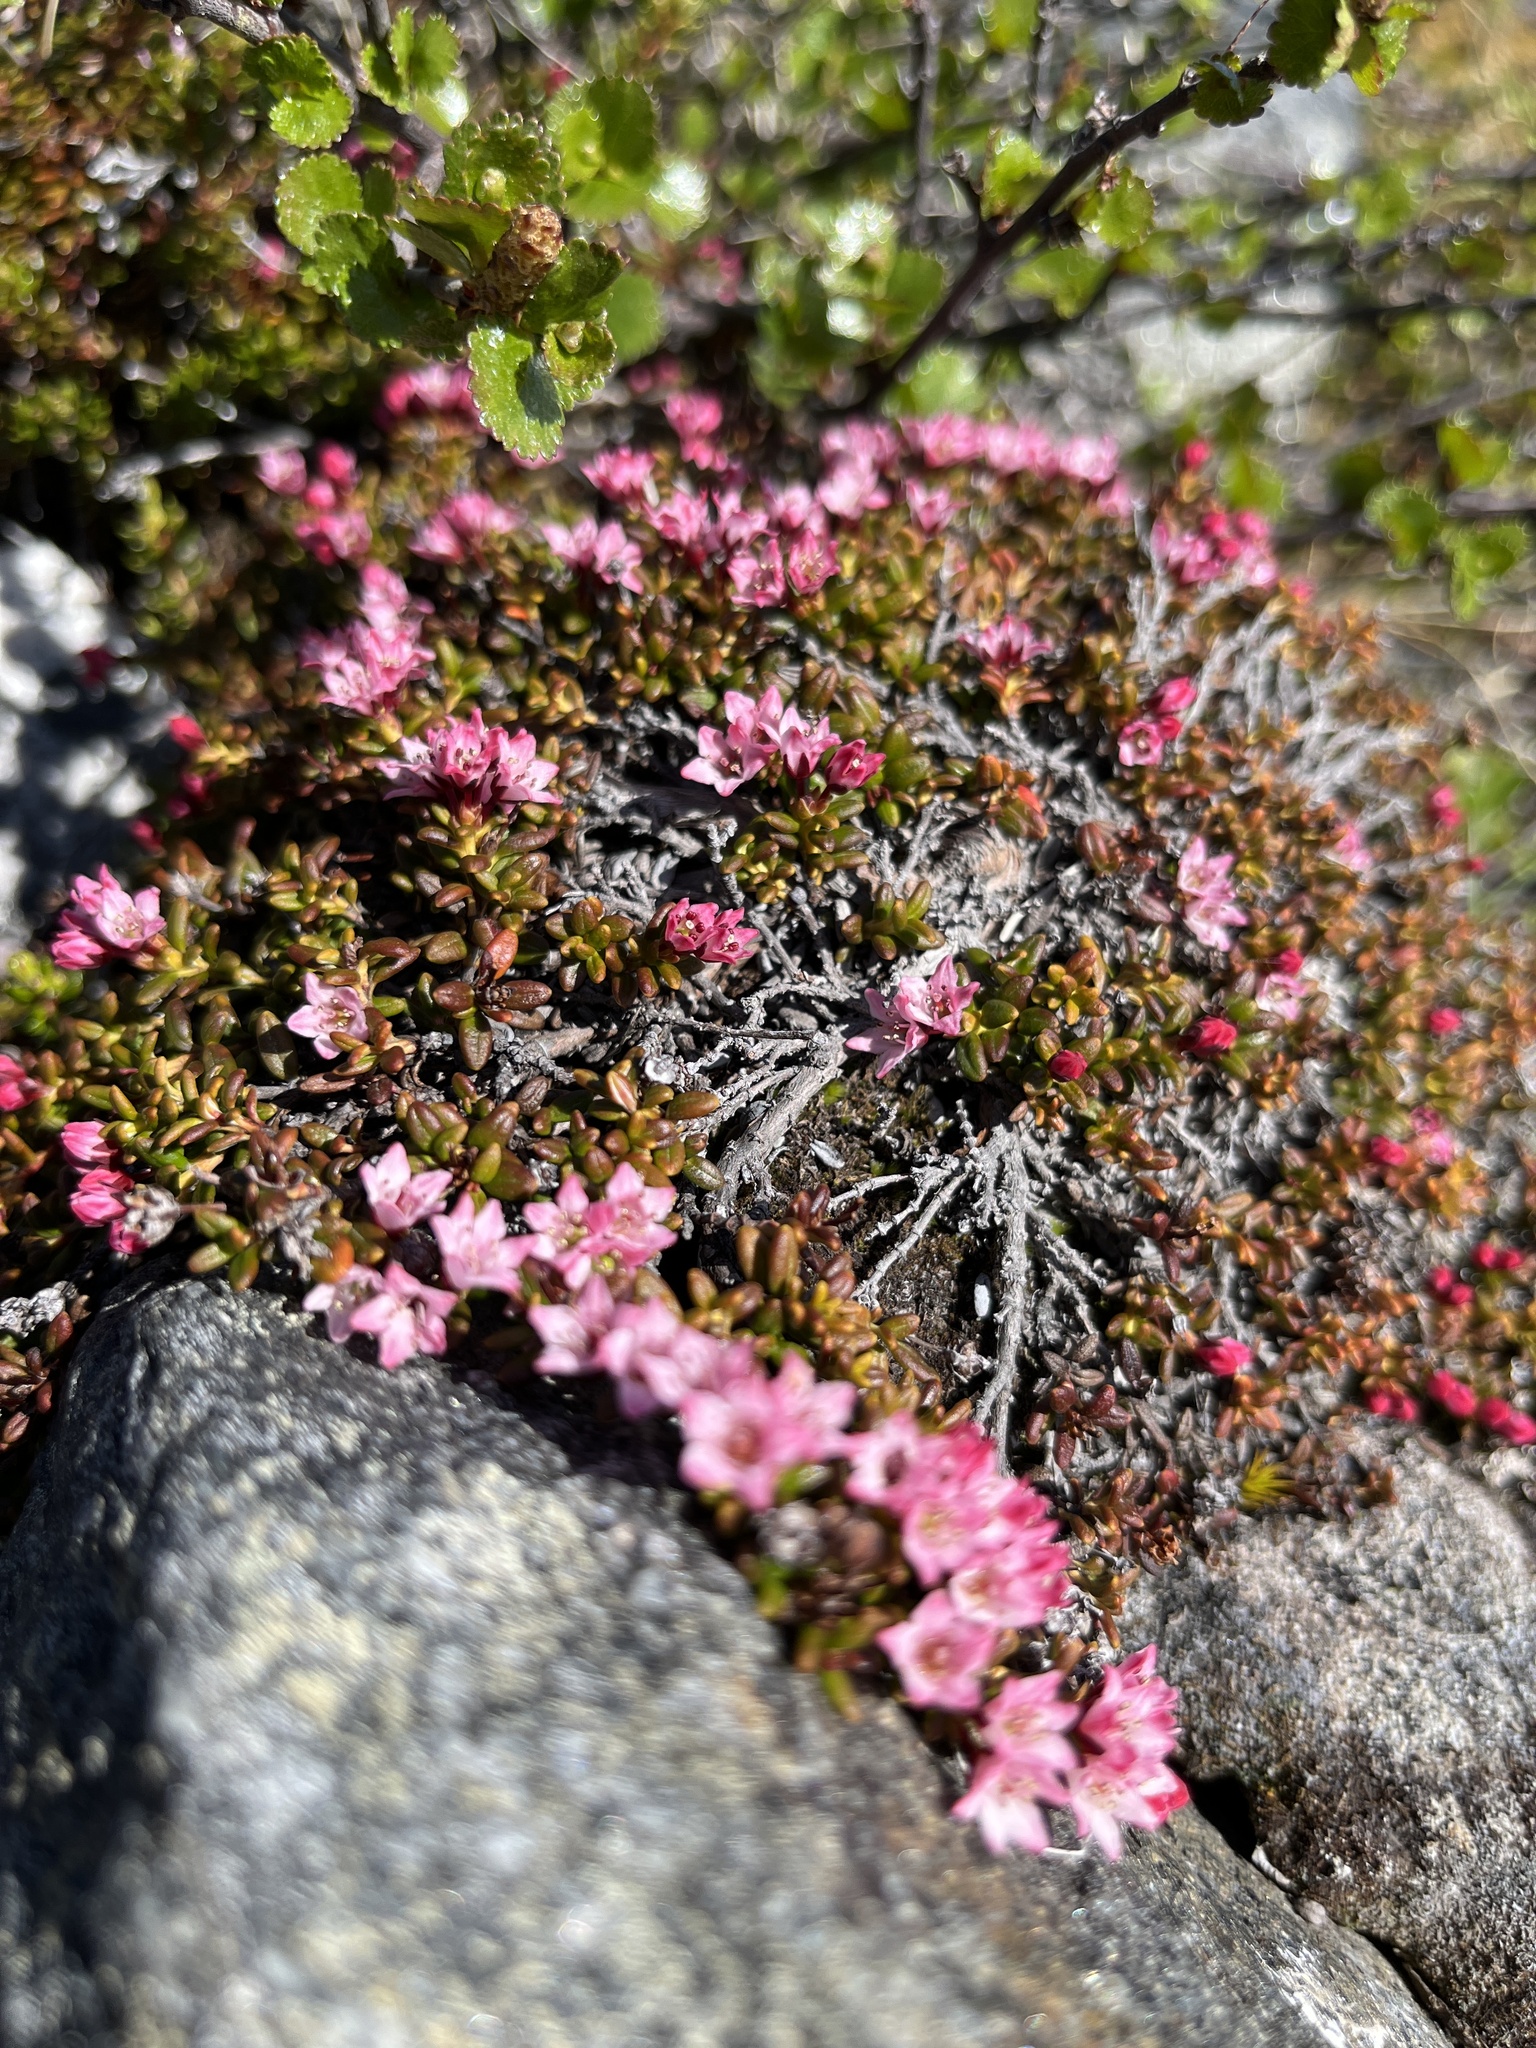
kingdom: Plantae
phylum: Tracheophyta
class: Magnoliopsida
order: Ericales
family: Ericaceae
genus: Kalmia
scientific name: Kalmia procumbens
